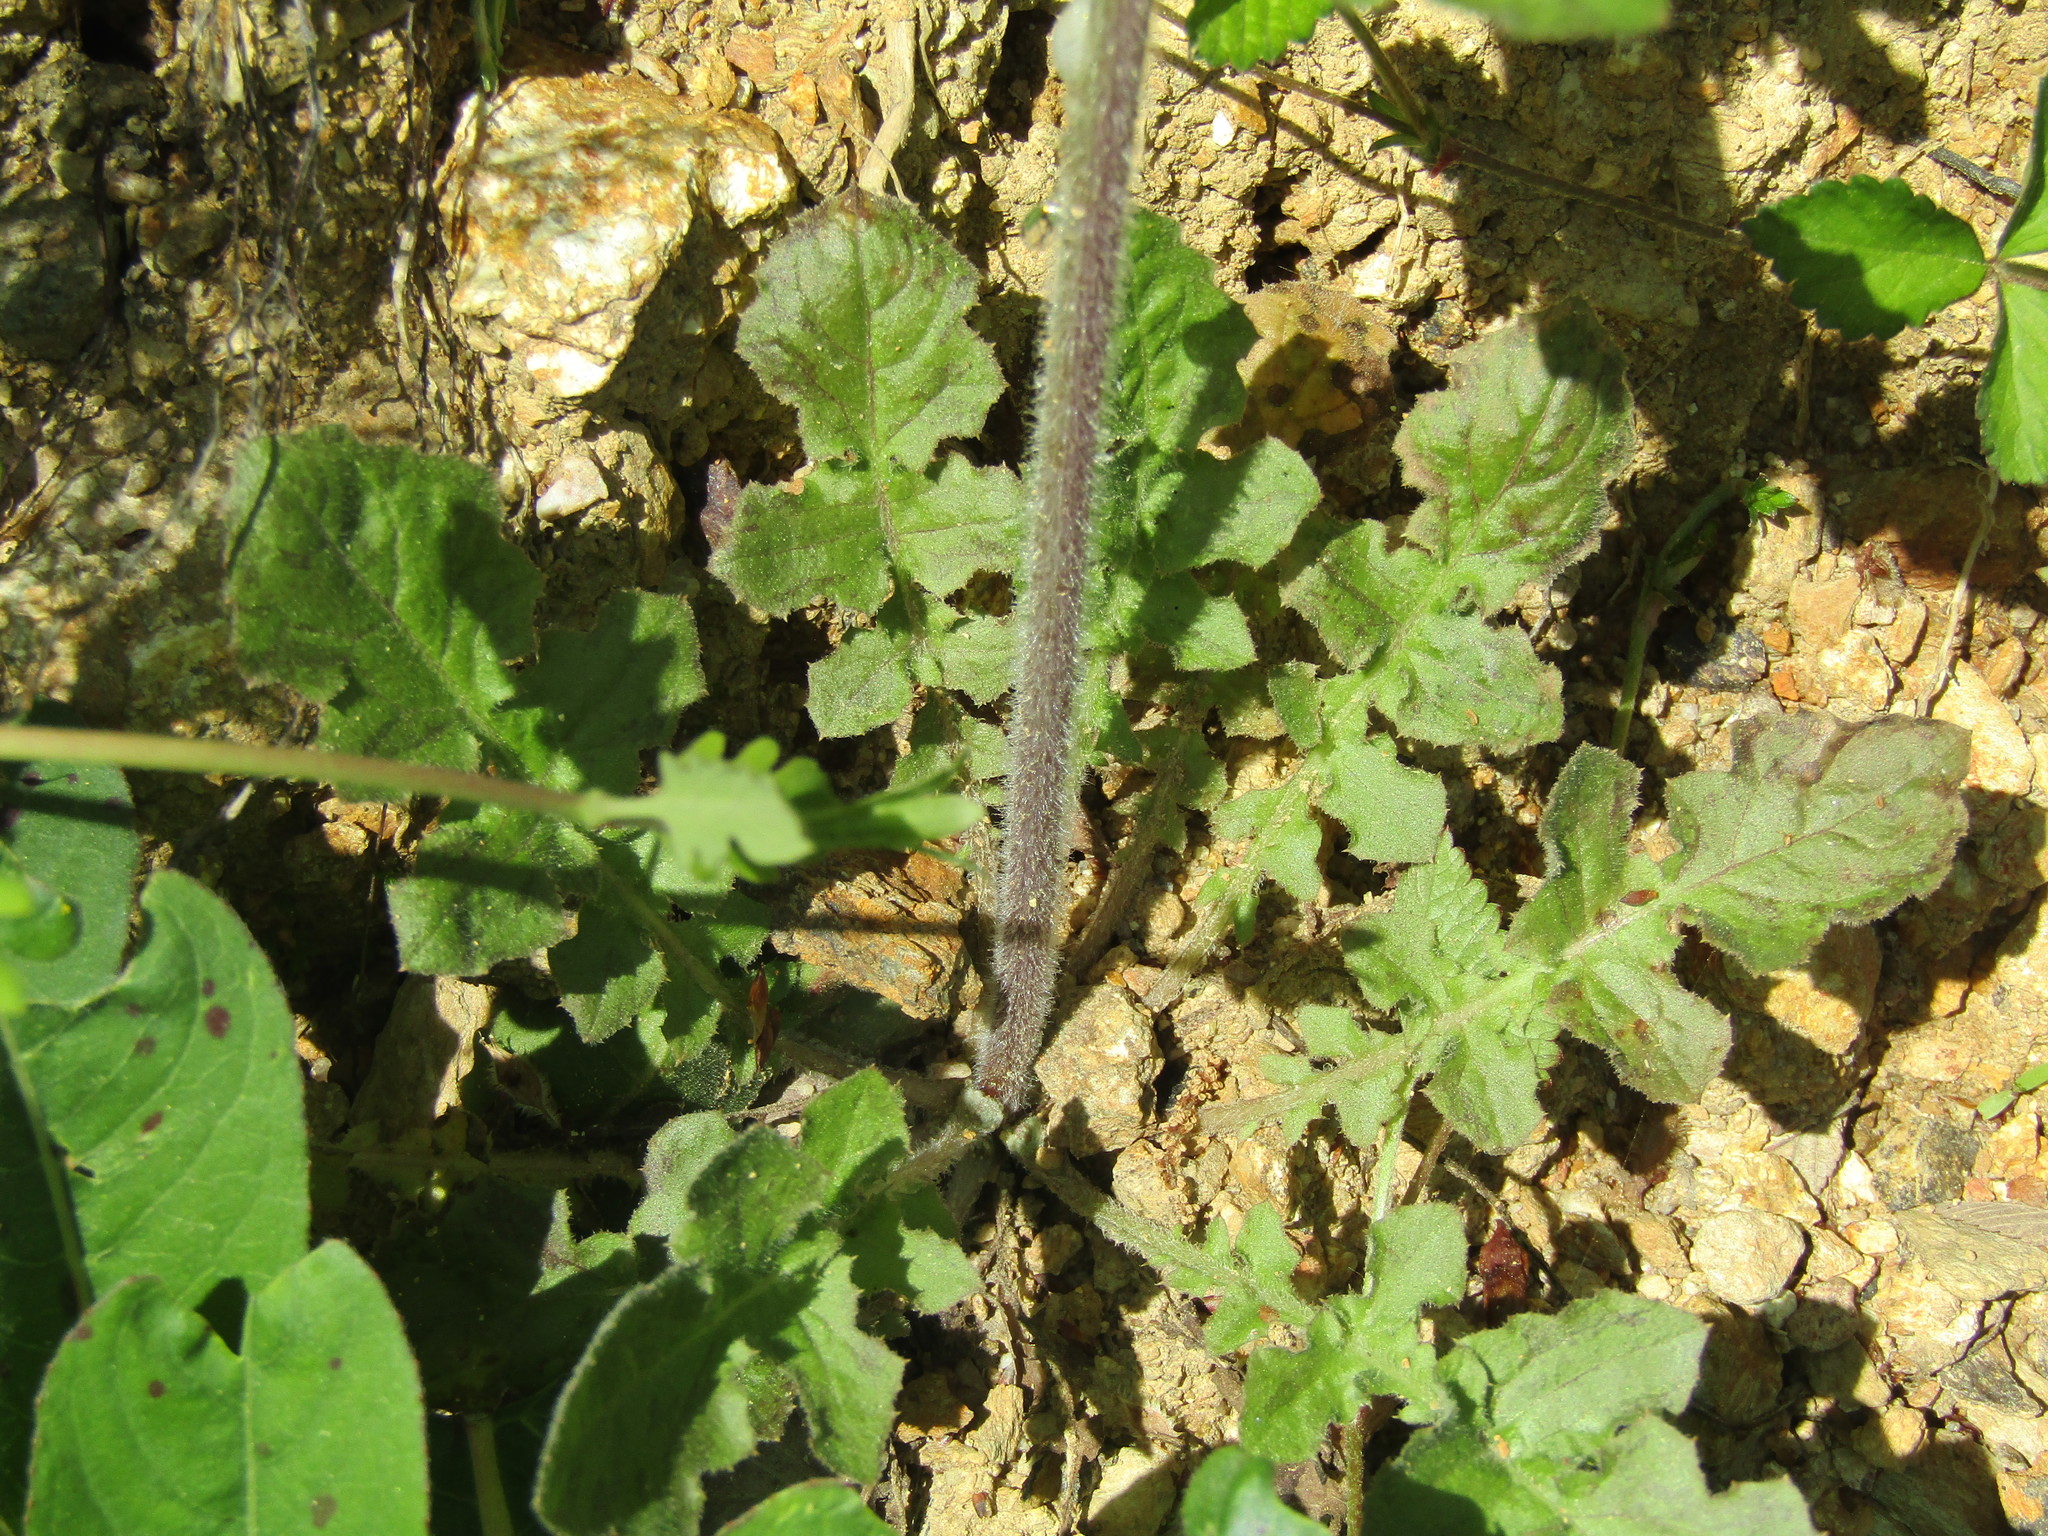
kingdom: Plantae
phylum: Tracheophyta
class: Magnoliopsida
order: Asterales
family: Asteraceae
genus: Youngia
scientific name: Youngia japonica
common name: Oriental false hawksbeard
